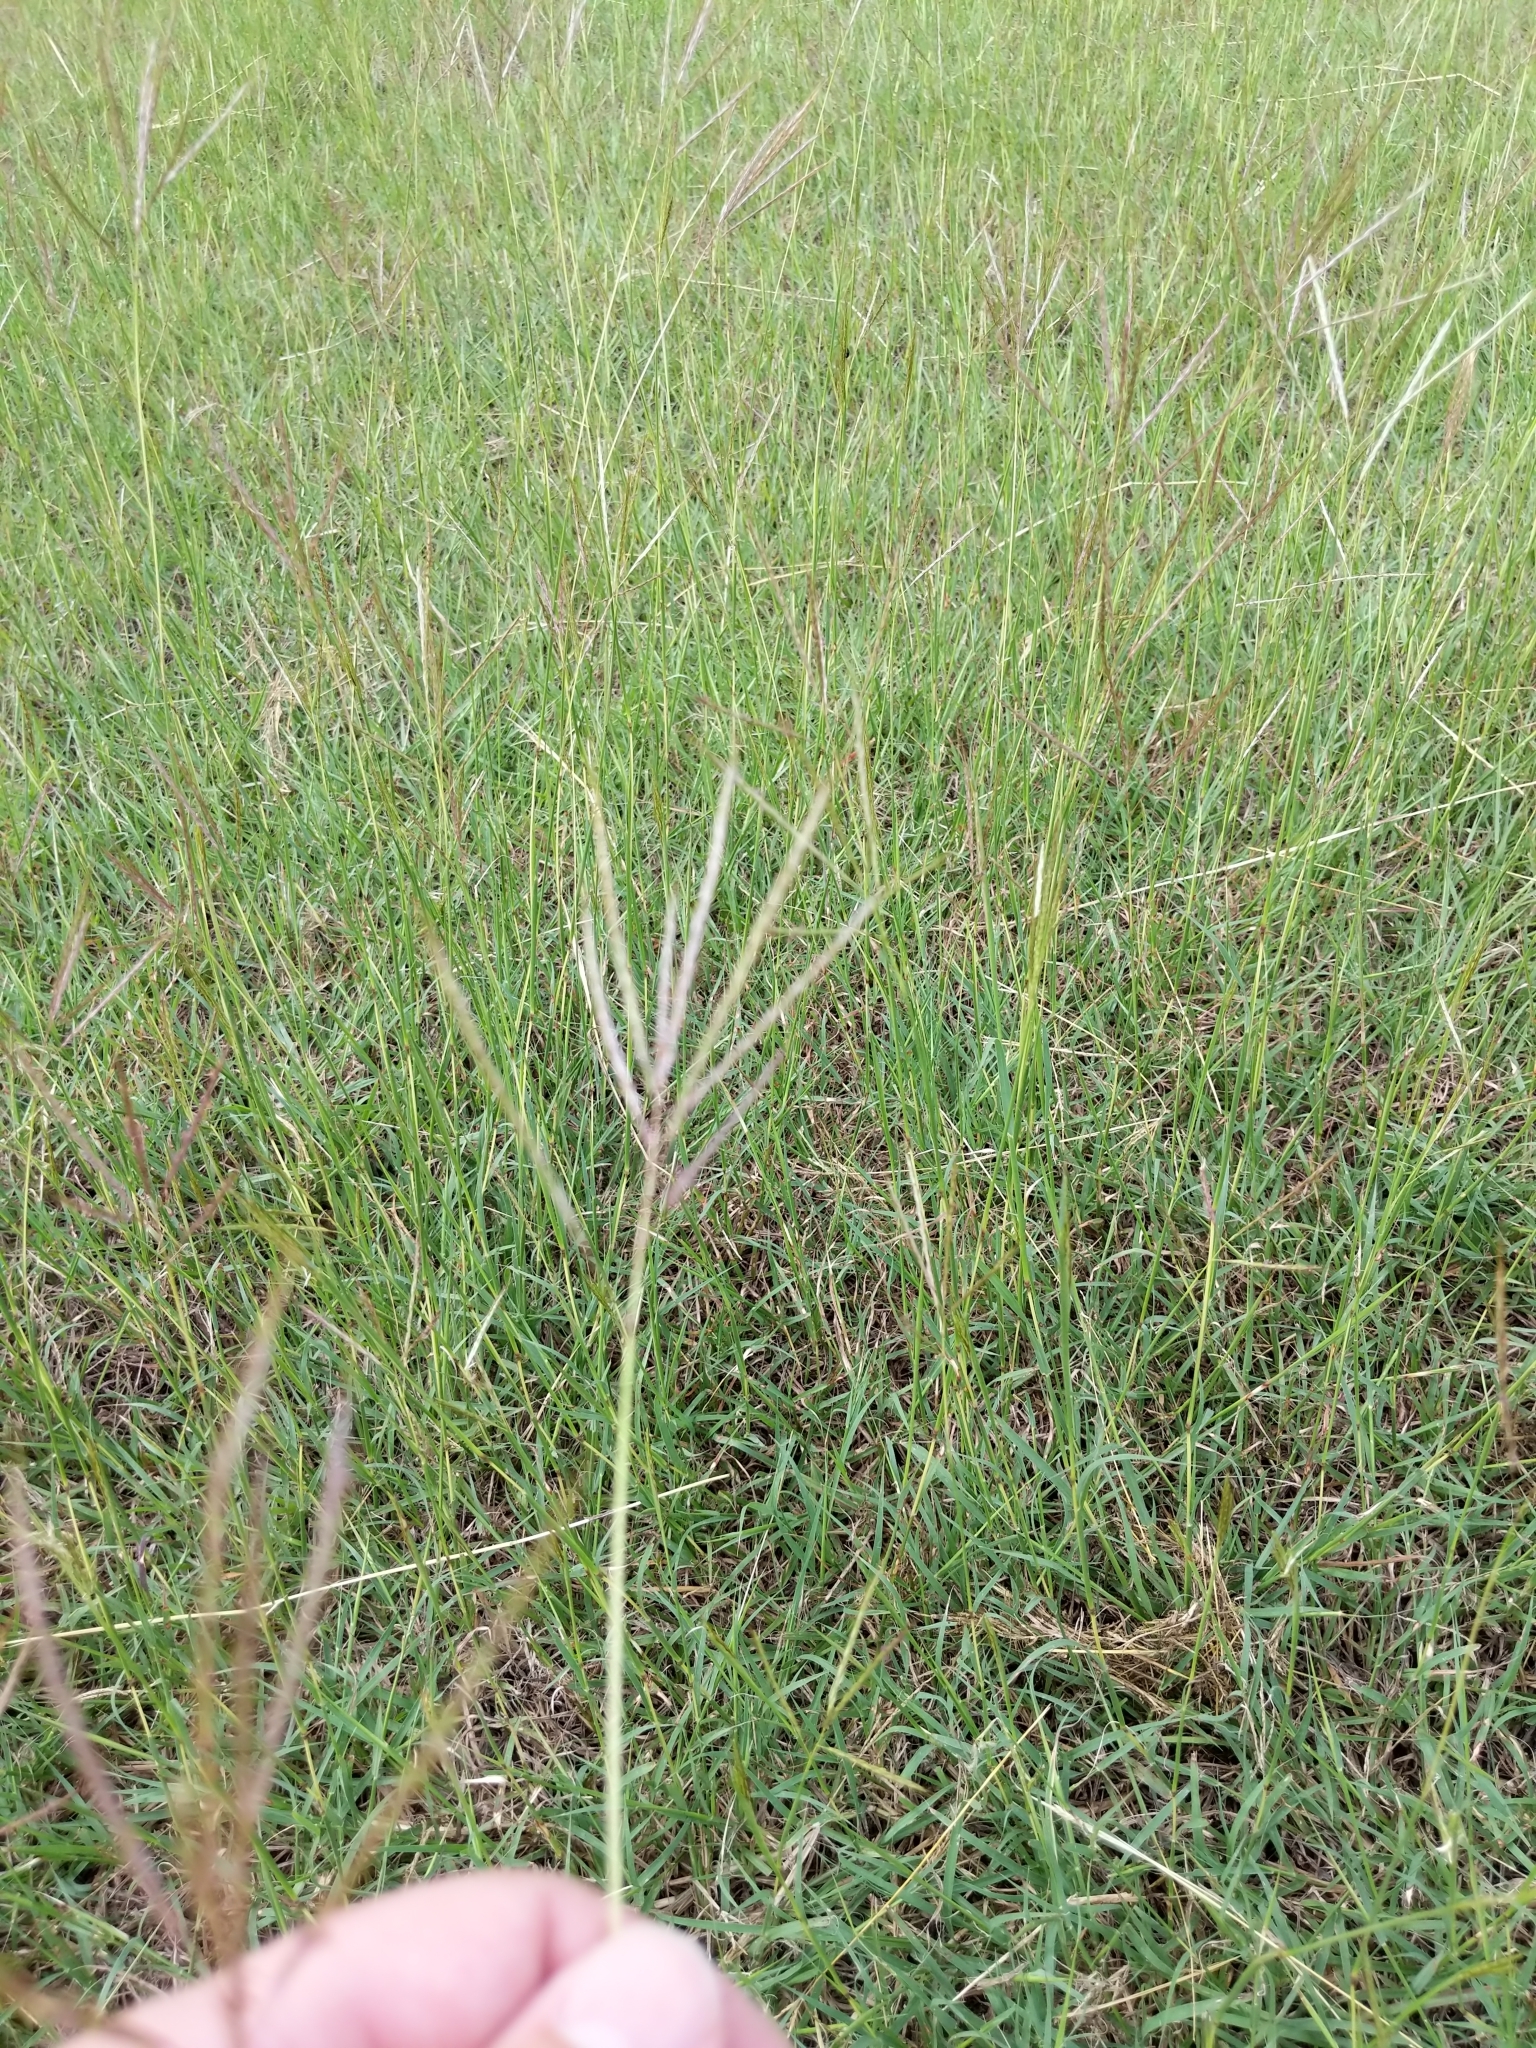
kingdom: Plantae
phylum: Tracheophyta
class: Liliopsida
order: Poales
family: Poaceae
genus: Bothriochloa
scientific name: Bothriochloa ischaemum
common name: Yellow bluestem
